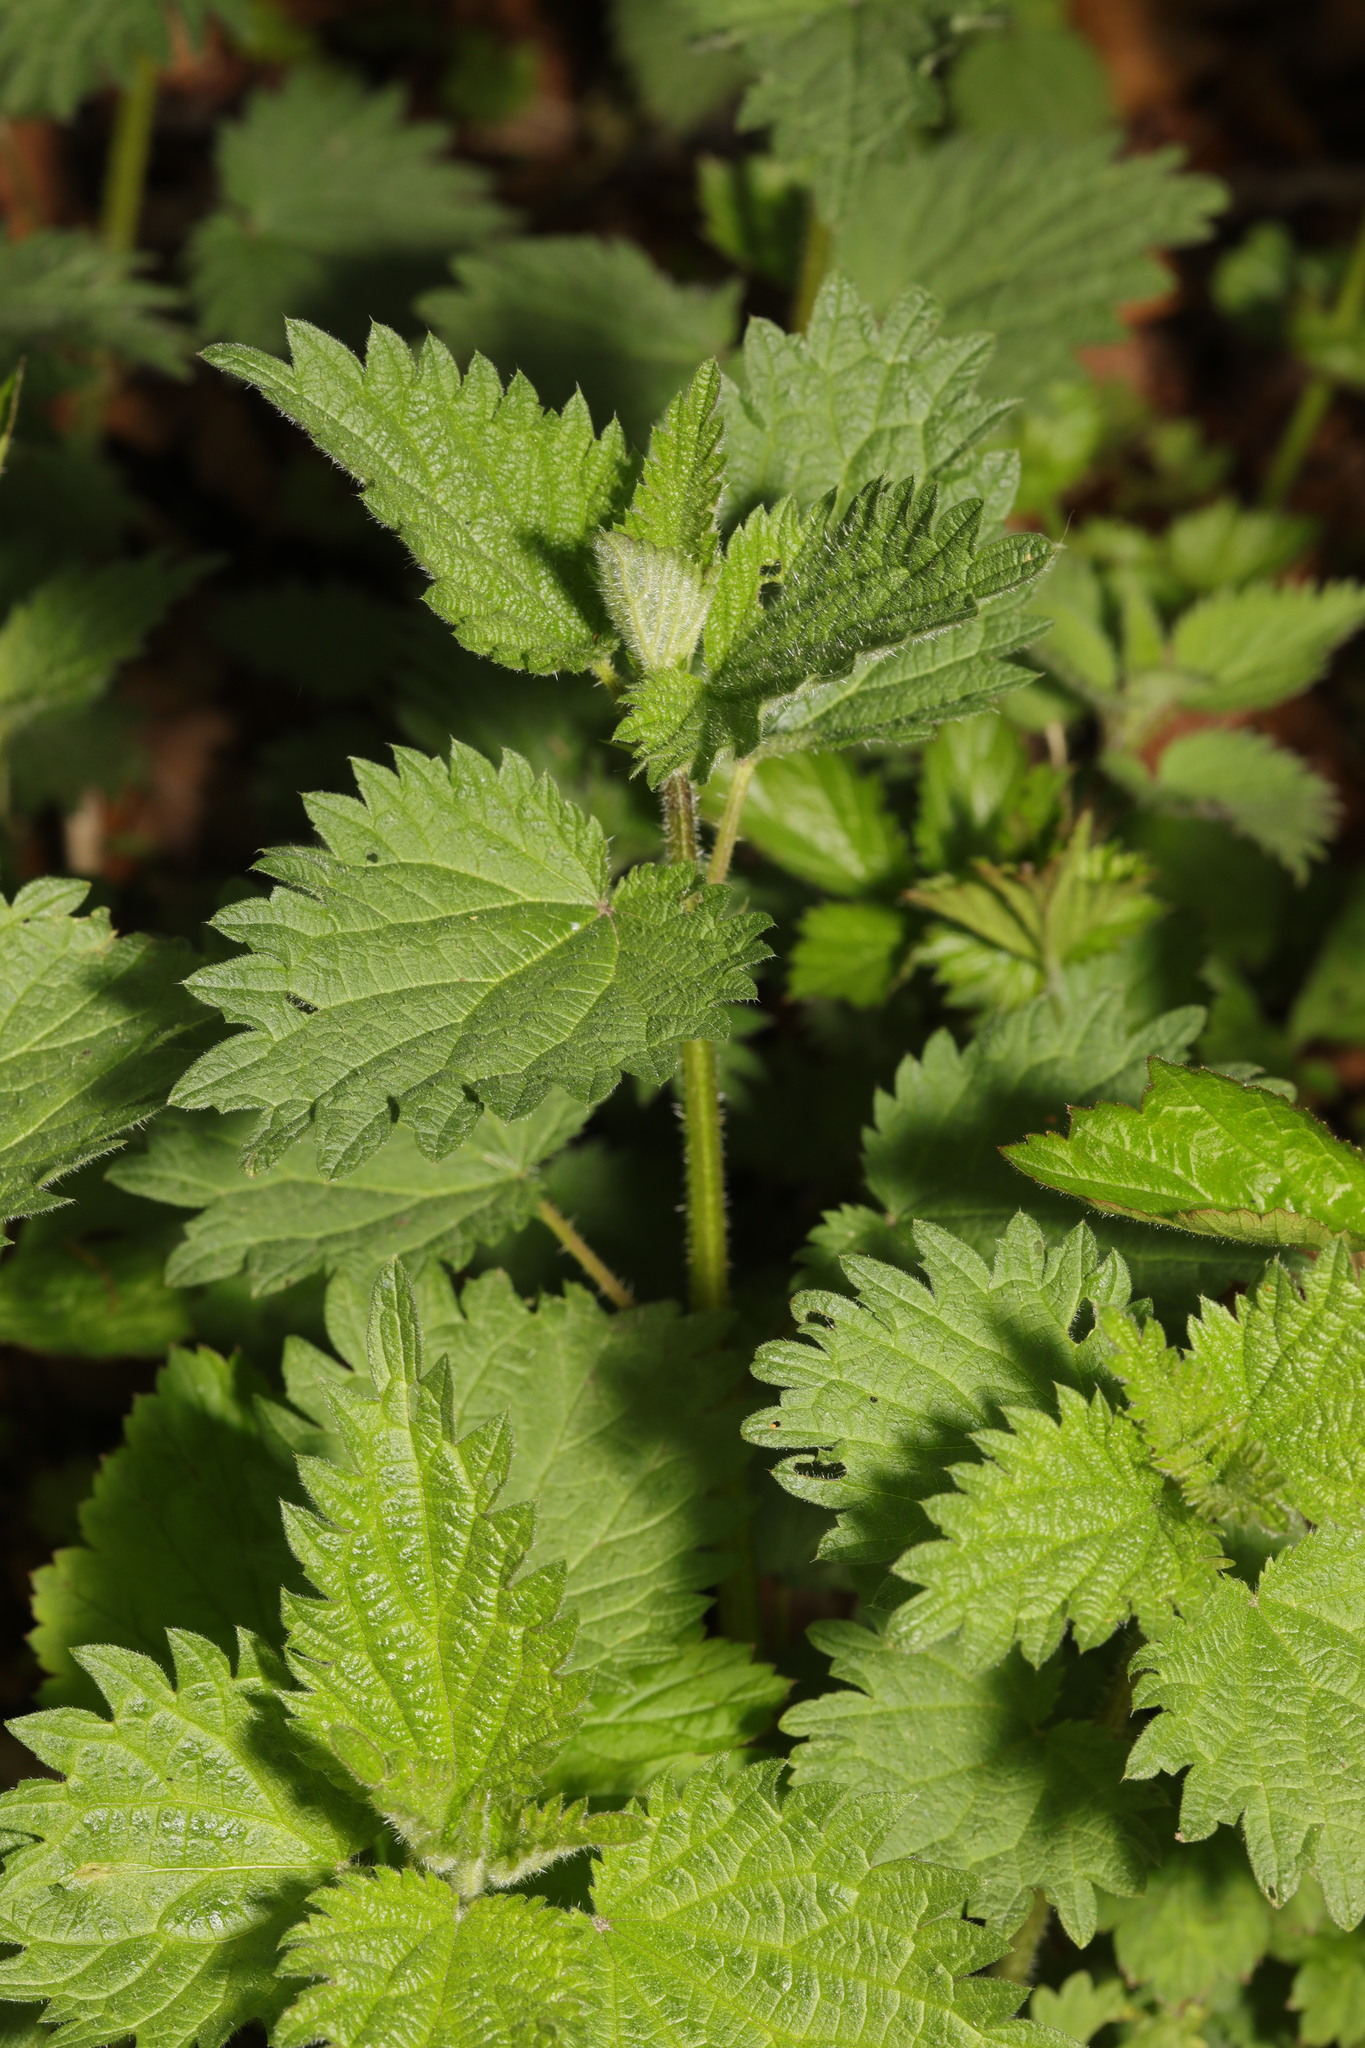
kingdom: Plantae
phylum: Tracheophyta
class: Magnoliopsida
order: Rosales
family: Urticaceae
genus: Urtica
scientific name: Urtica dioica
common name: Common nettle
